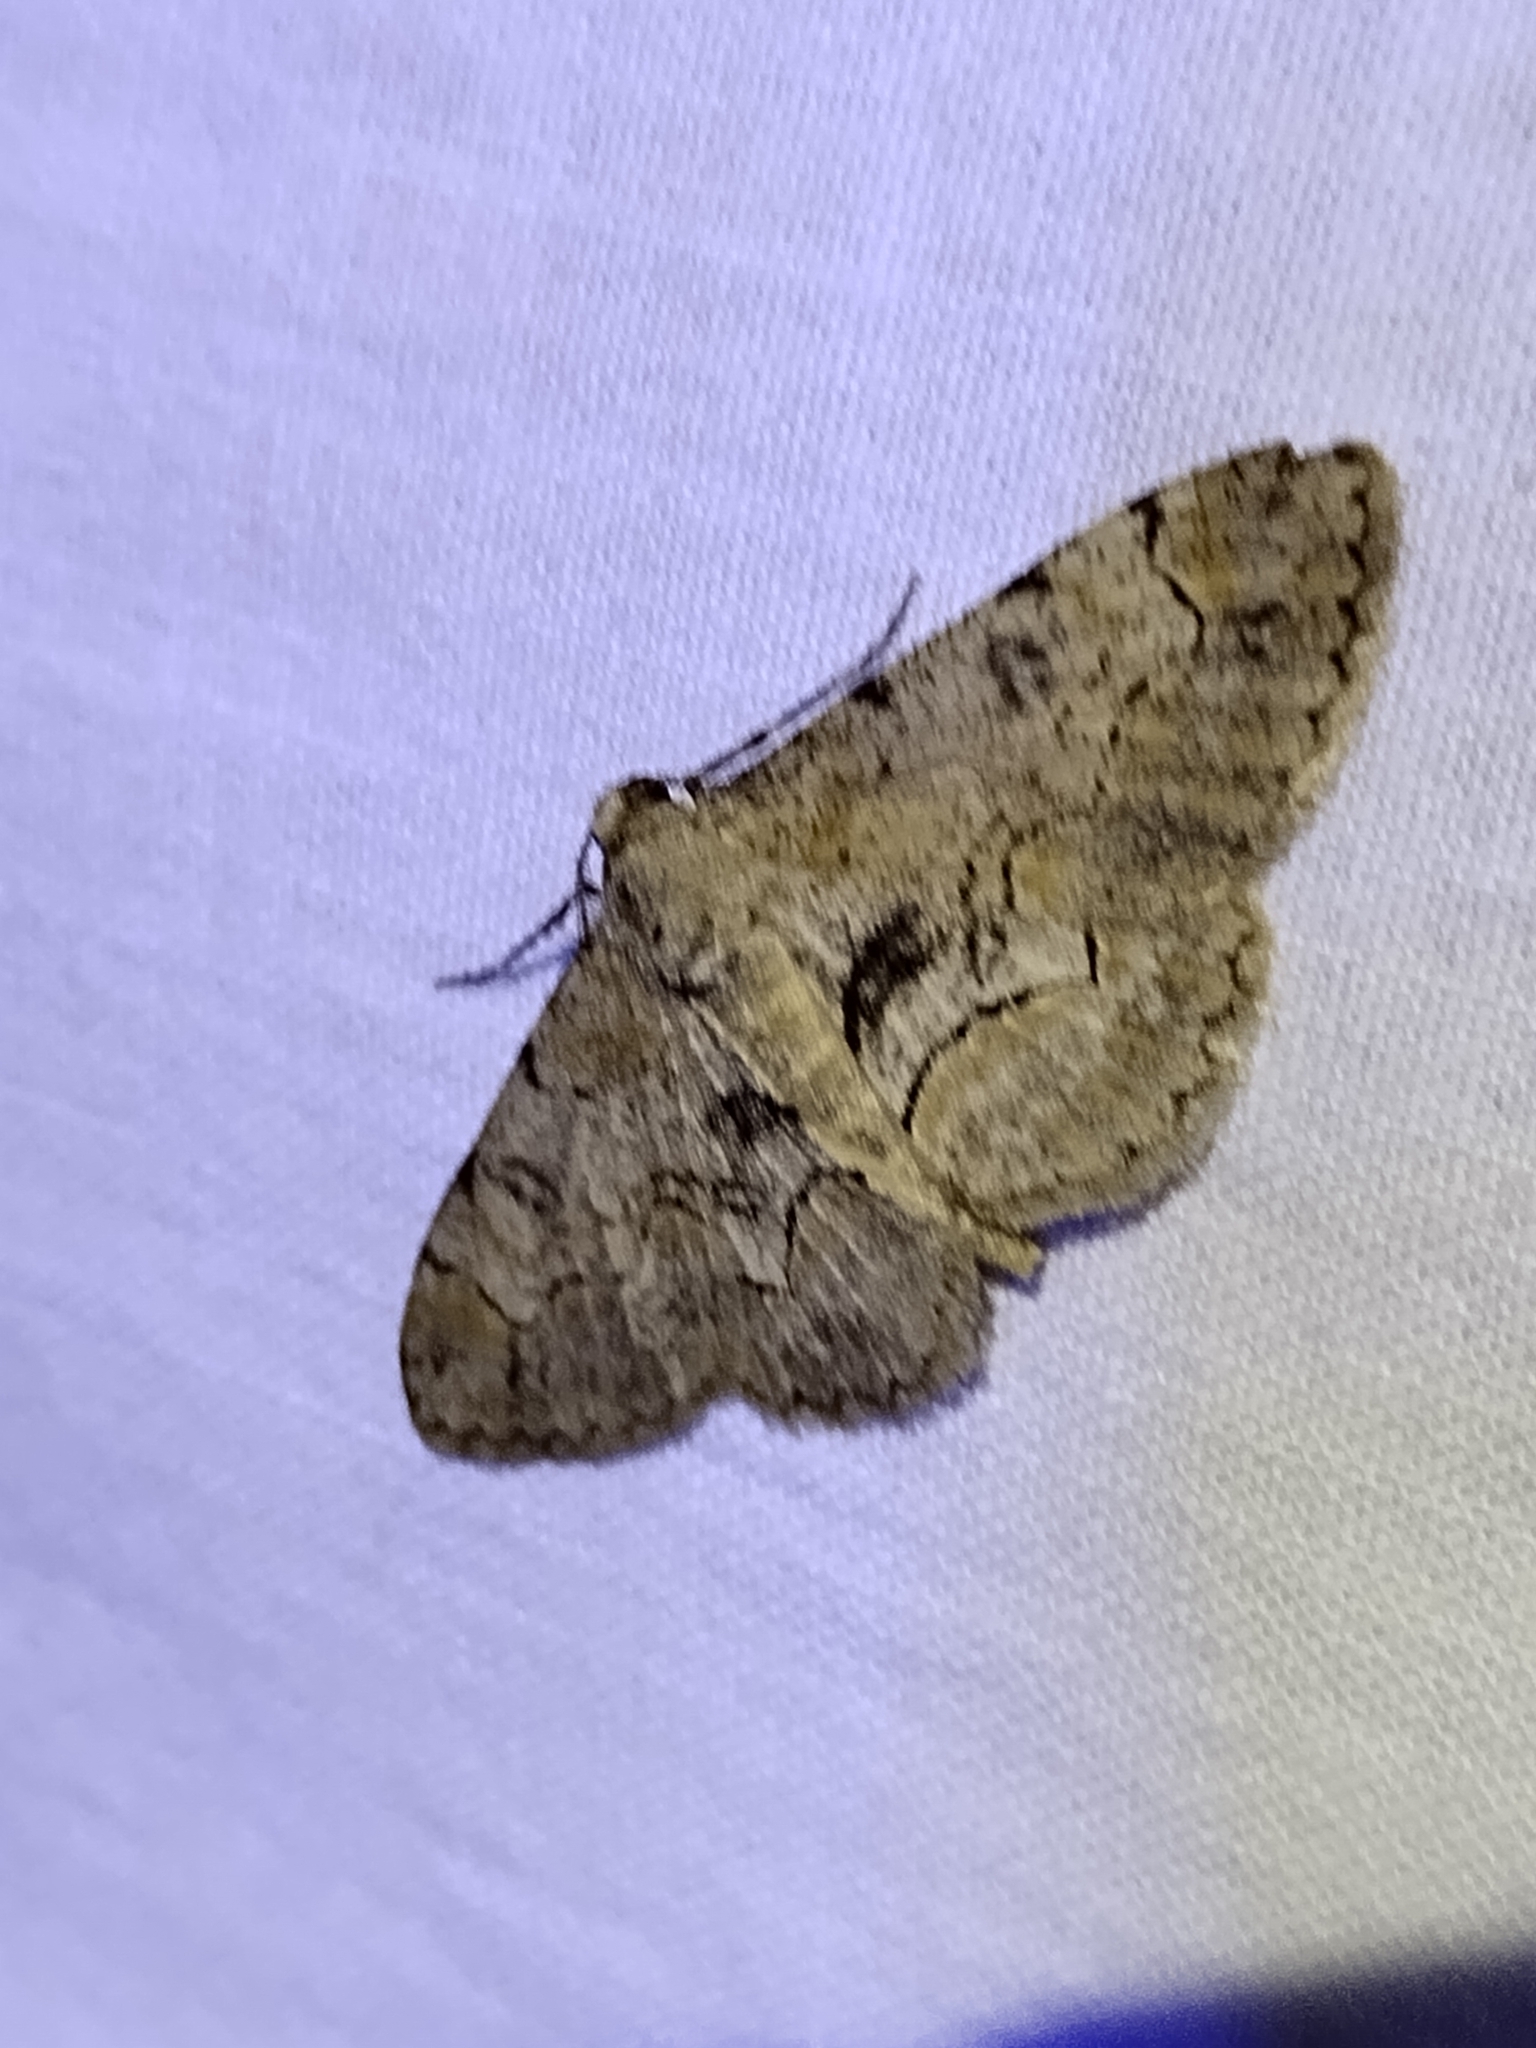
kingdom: Animalia
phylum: Arthropoda
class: Insecta
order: Lepidoptera
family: Geometridae
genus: Iridopsis
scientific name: Iridopsis larvaria
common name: Bent-line gray
